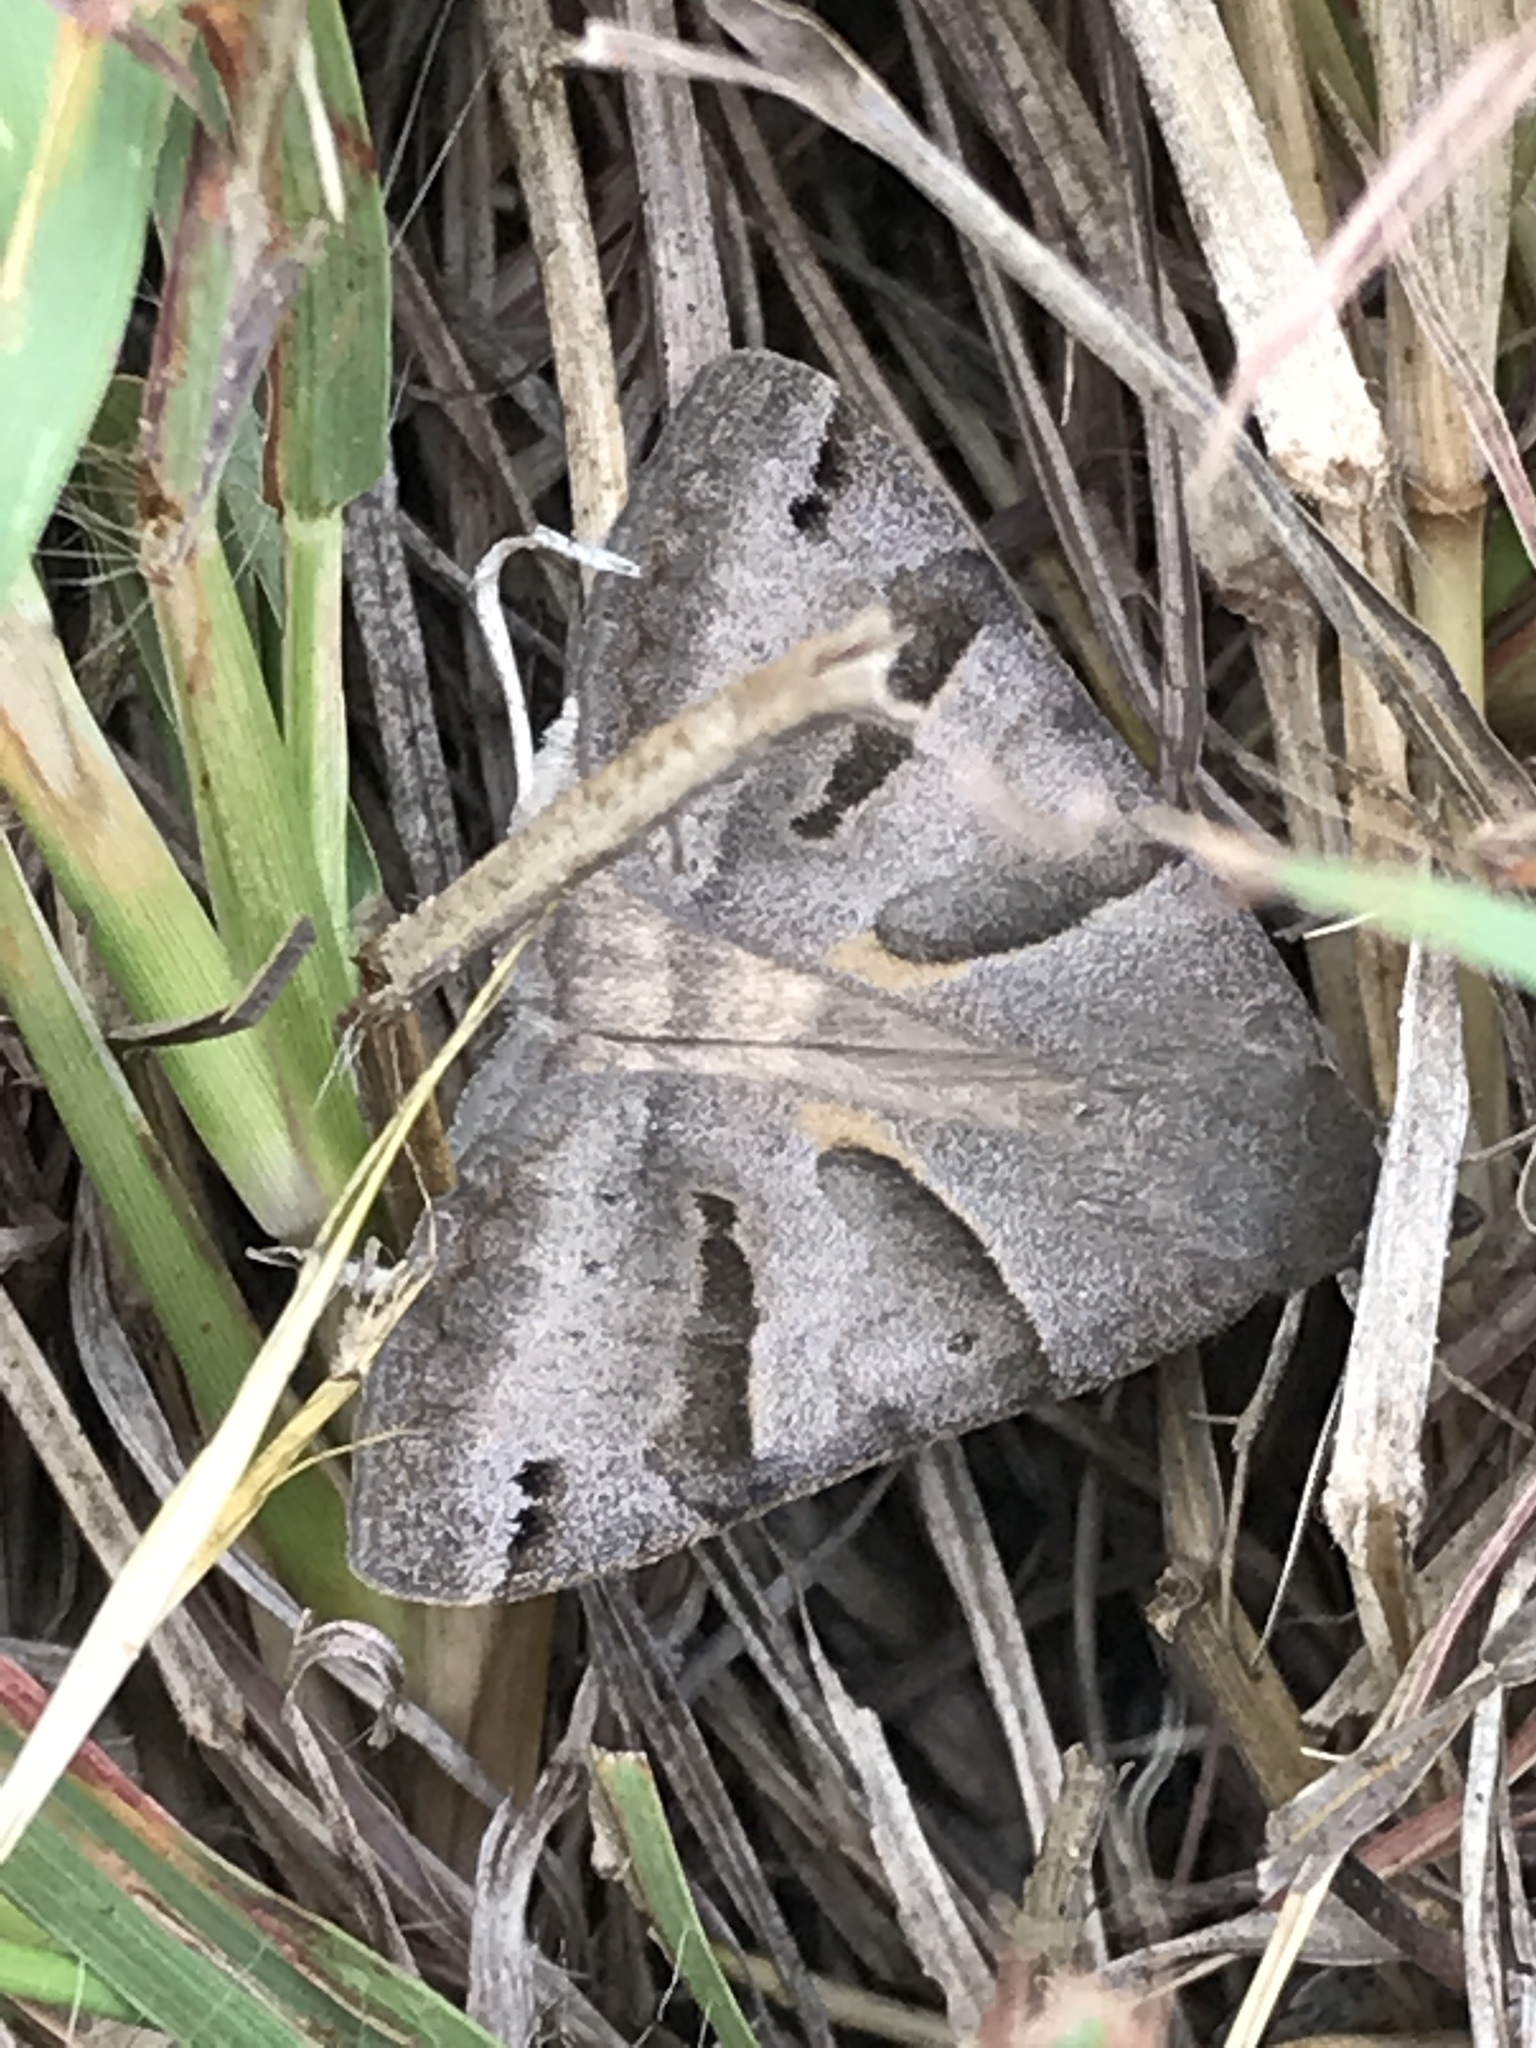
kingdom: Animalia
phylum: Arthropoda
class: Insecta
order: Lepidoptera
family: Erebidae
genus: Caenurgina
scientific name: Caenurgina erechtea
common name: Forage looper moth
